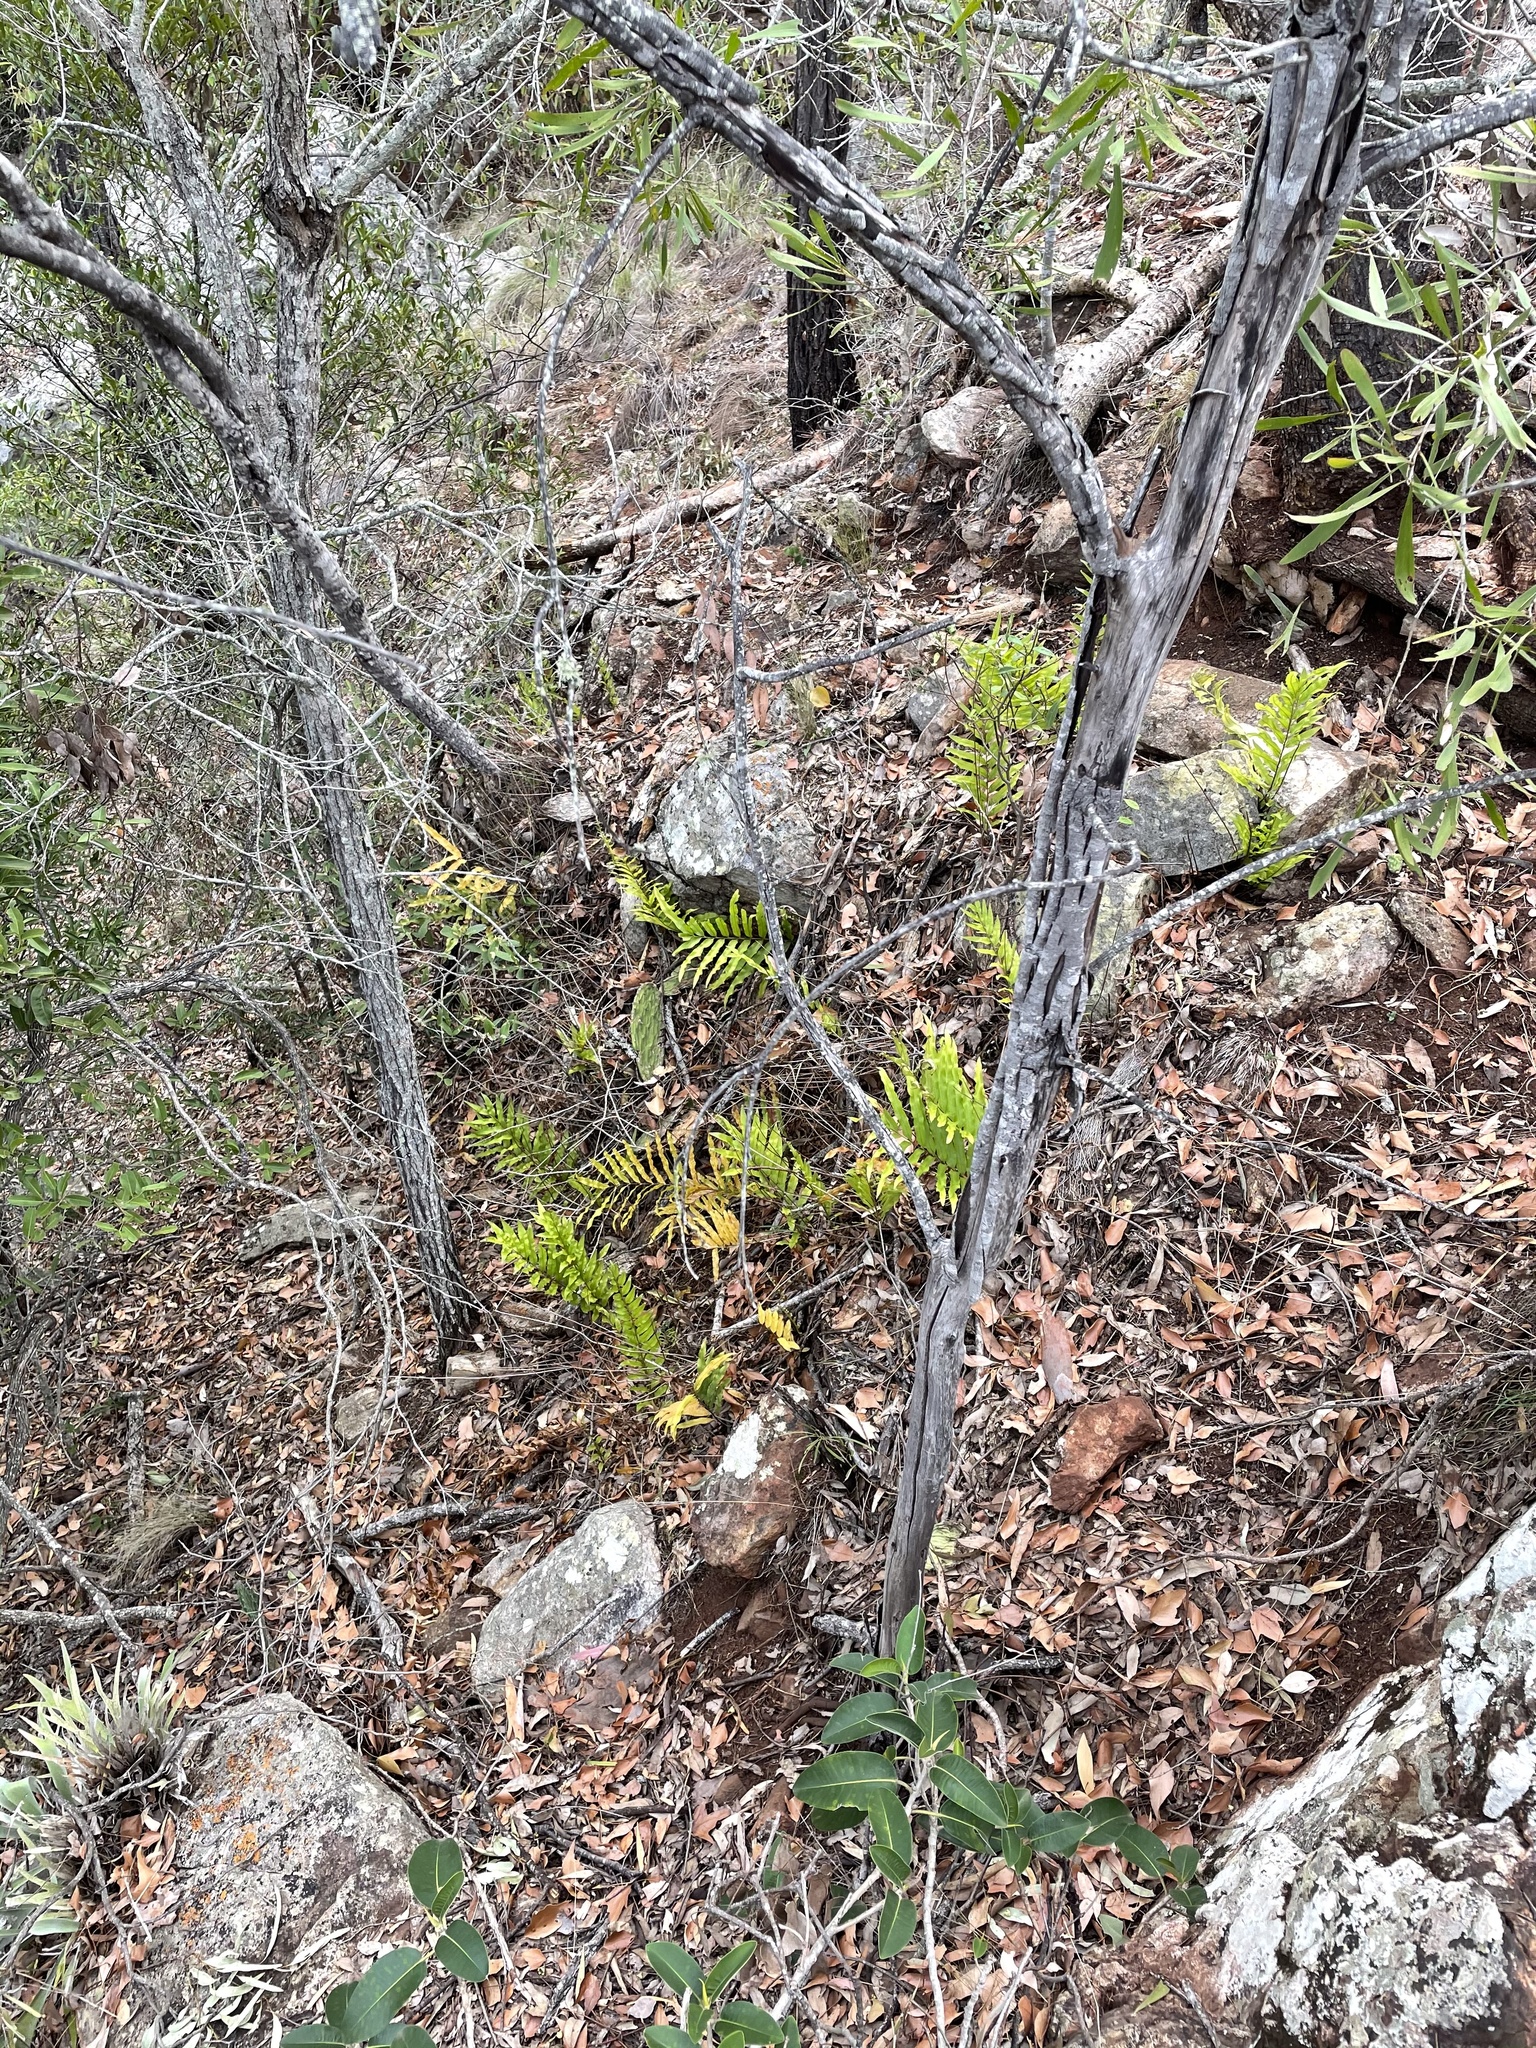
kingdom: Plantae
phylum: Tracheophyta
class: Polypodiopsida
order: Polypodiales
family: Polypodiaceae
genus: Drynaria
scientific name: Drynaria rigidula
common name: Basket fern
